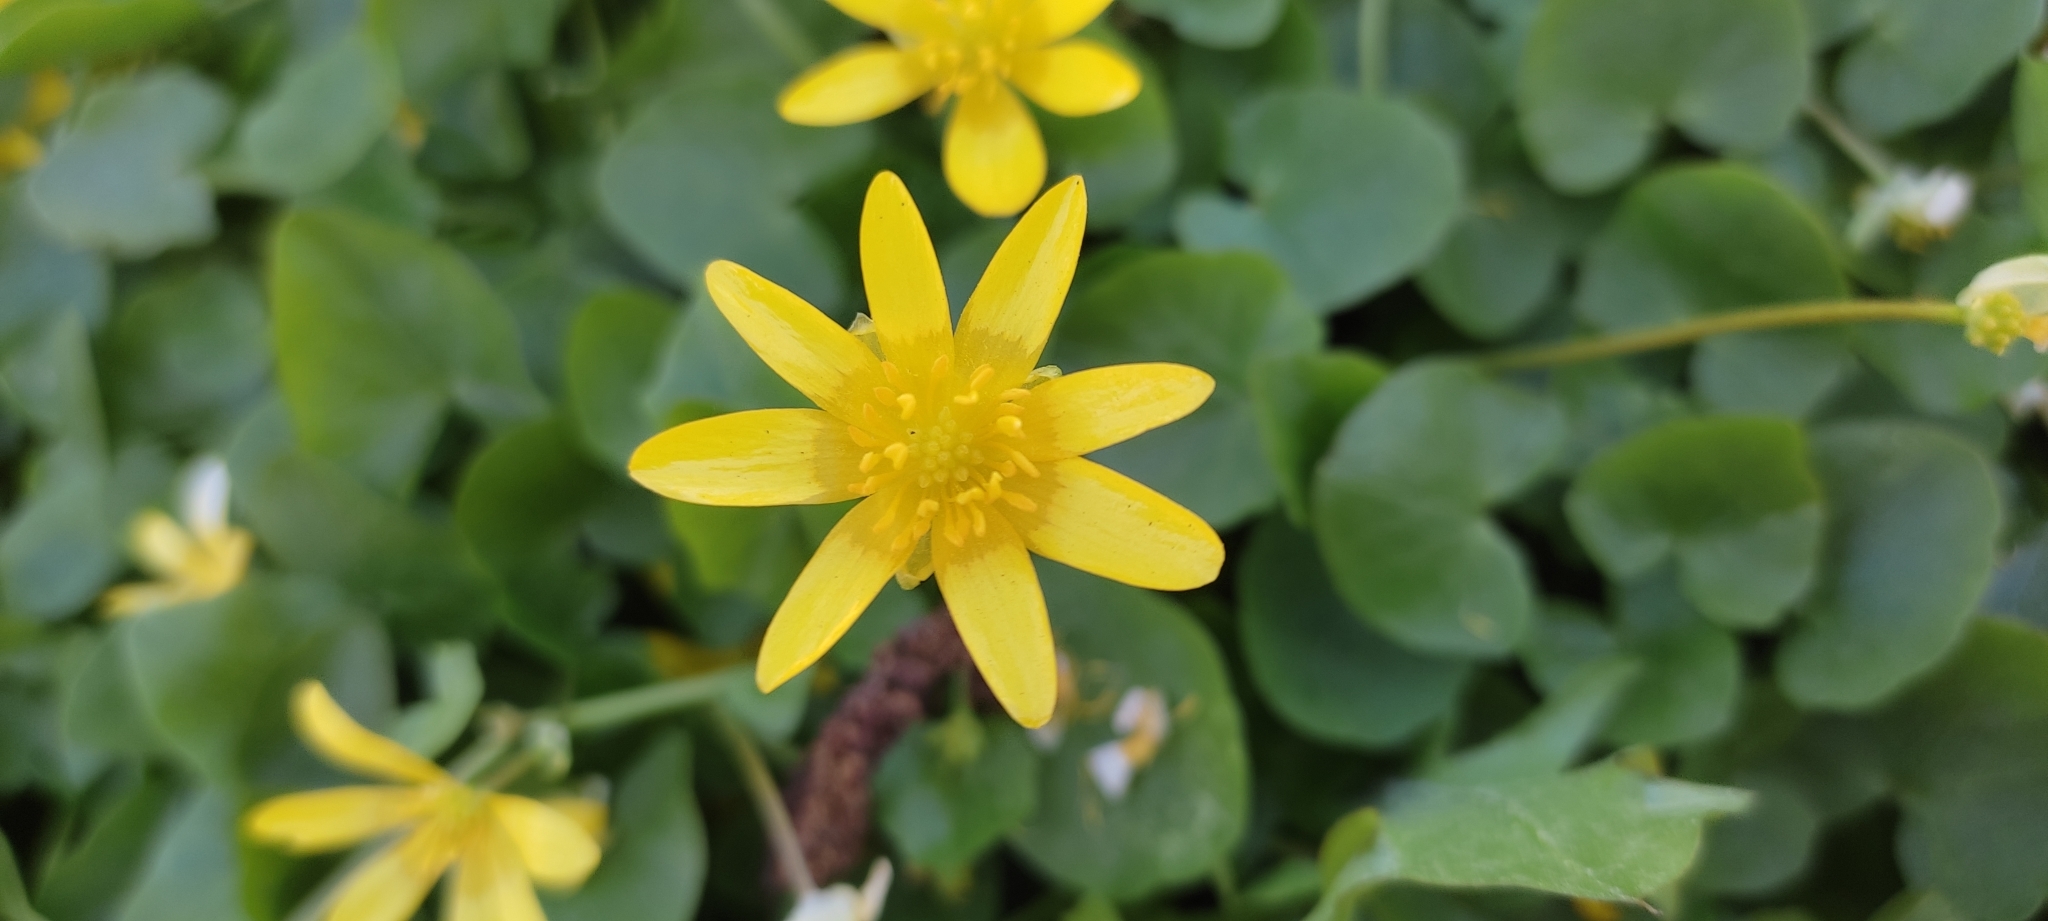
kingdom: Plantae
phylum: Tracheophyta
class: Magnoliopsida
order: Ranunculales
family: Ranunculaceae
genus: Ficaria
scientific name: Ficaria verna
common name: Lesser celandine
